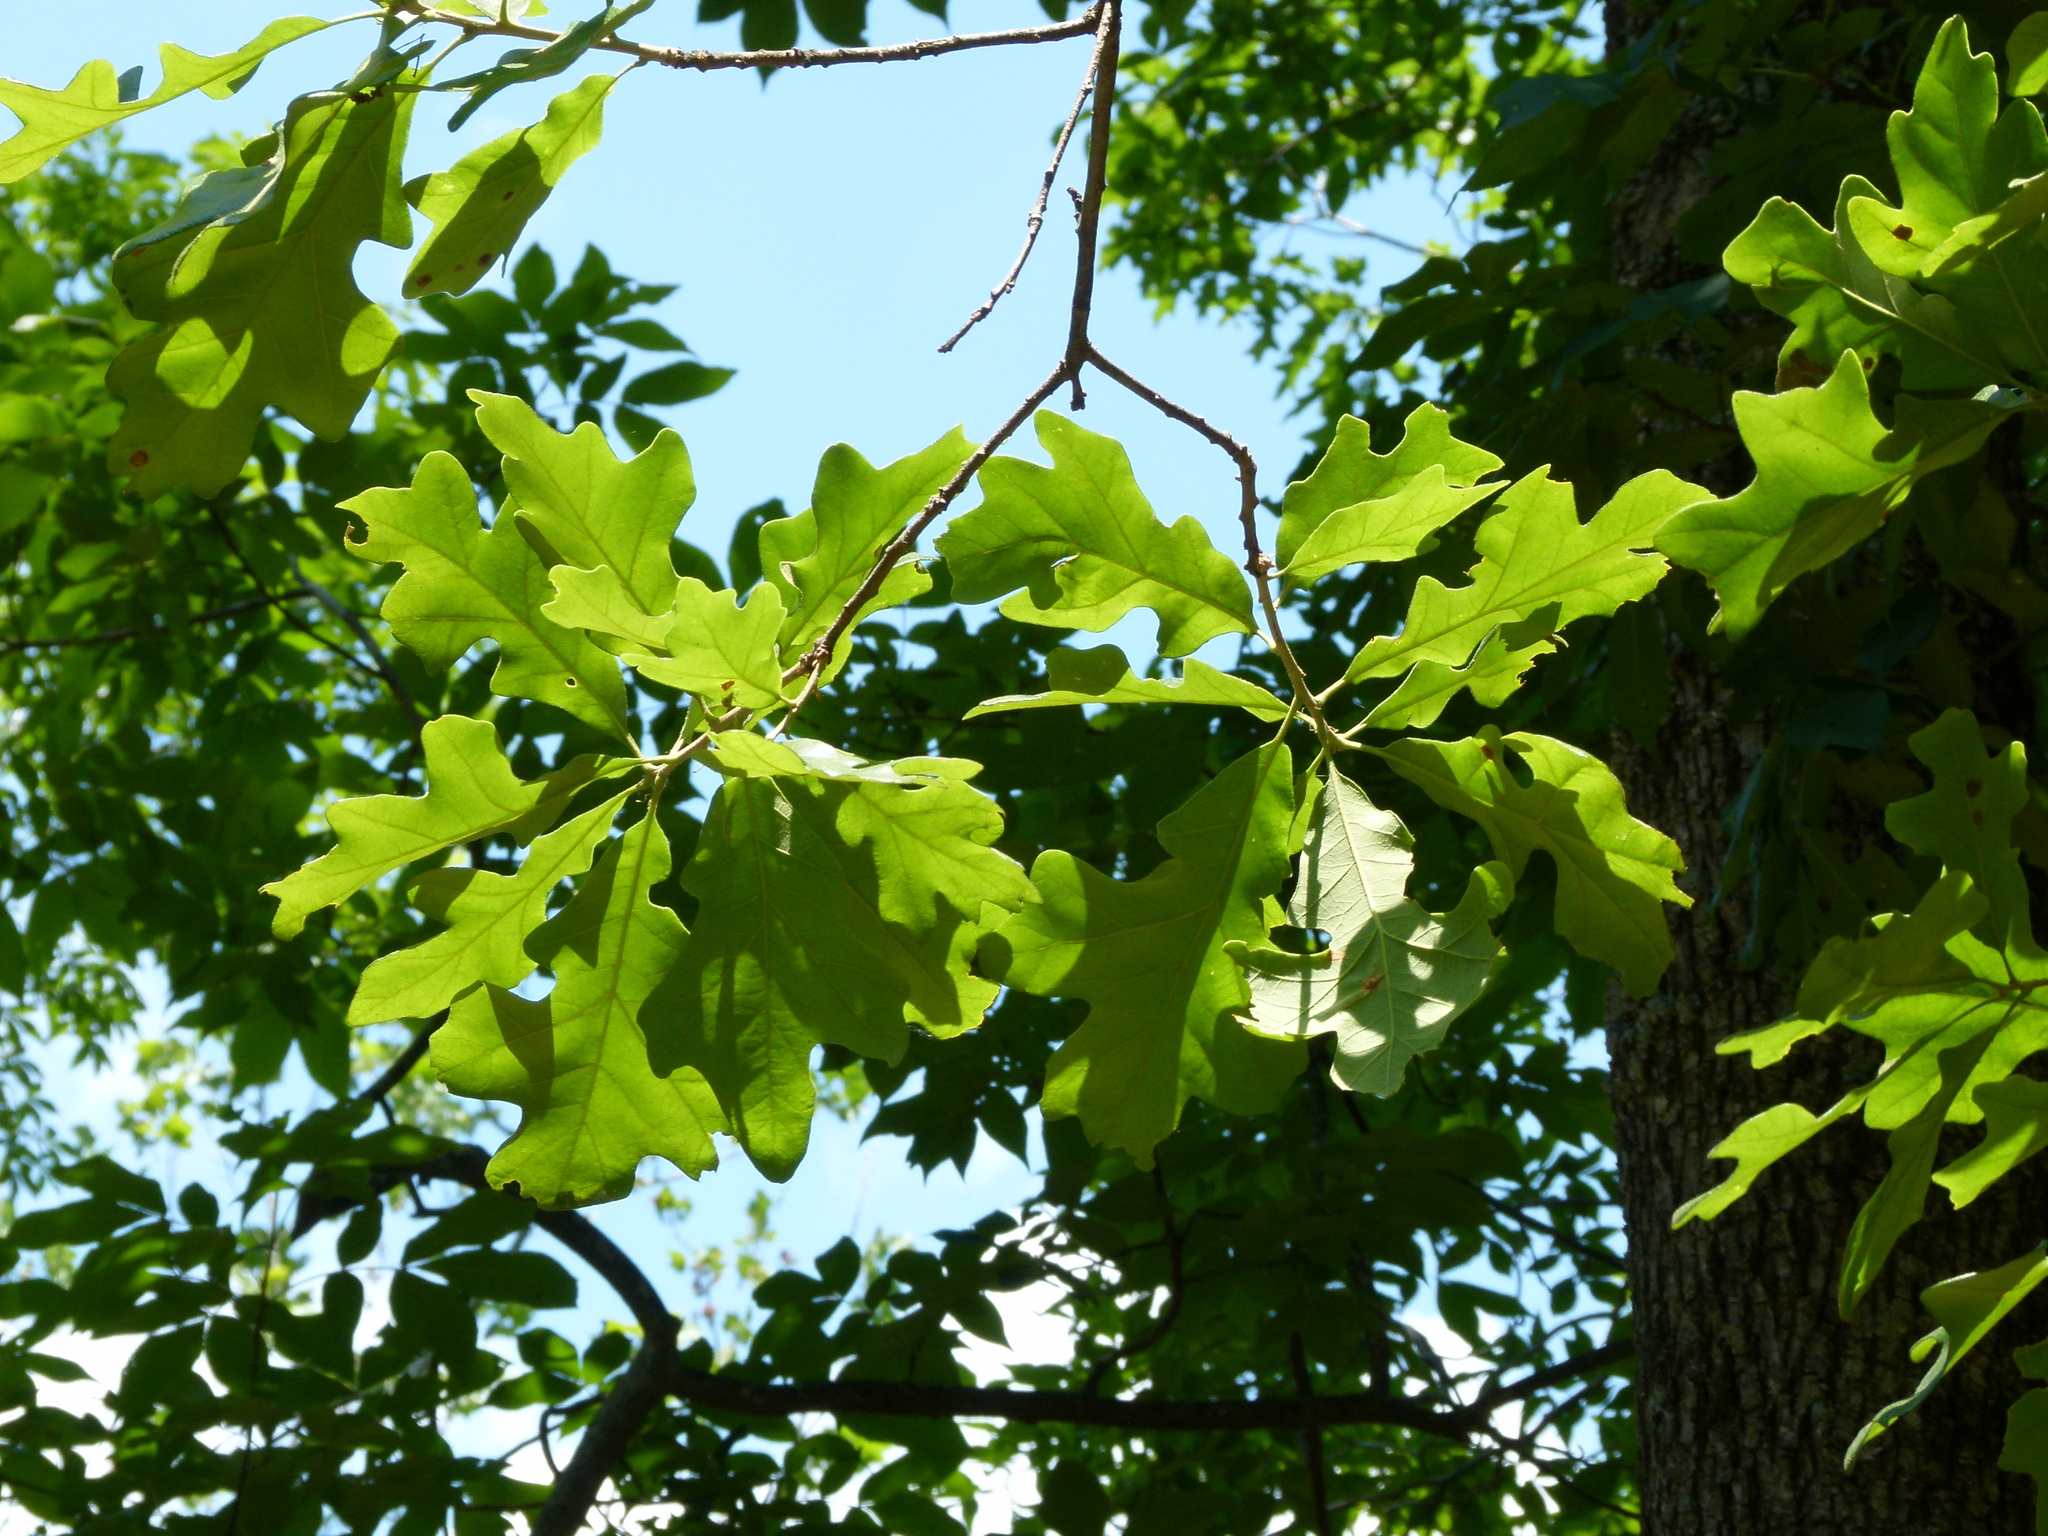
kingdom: Plantae
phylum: Tracheophyta
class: Magnoliopsida
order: Fagales
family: Fagaceae
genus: Quercus
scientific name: Quercus stellata
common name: Post oak
